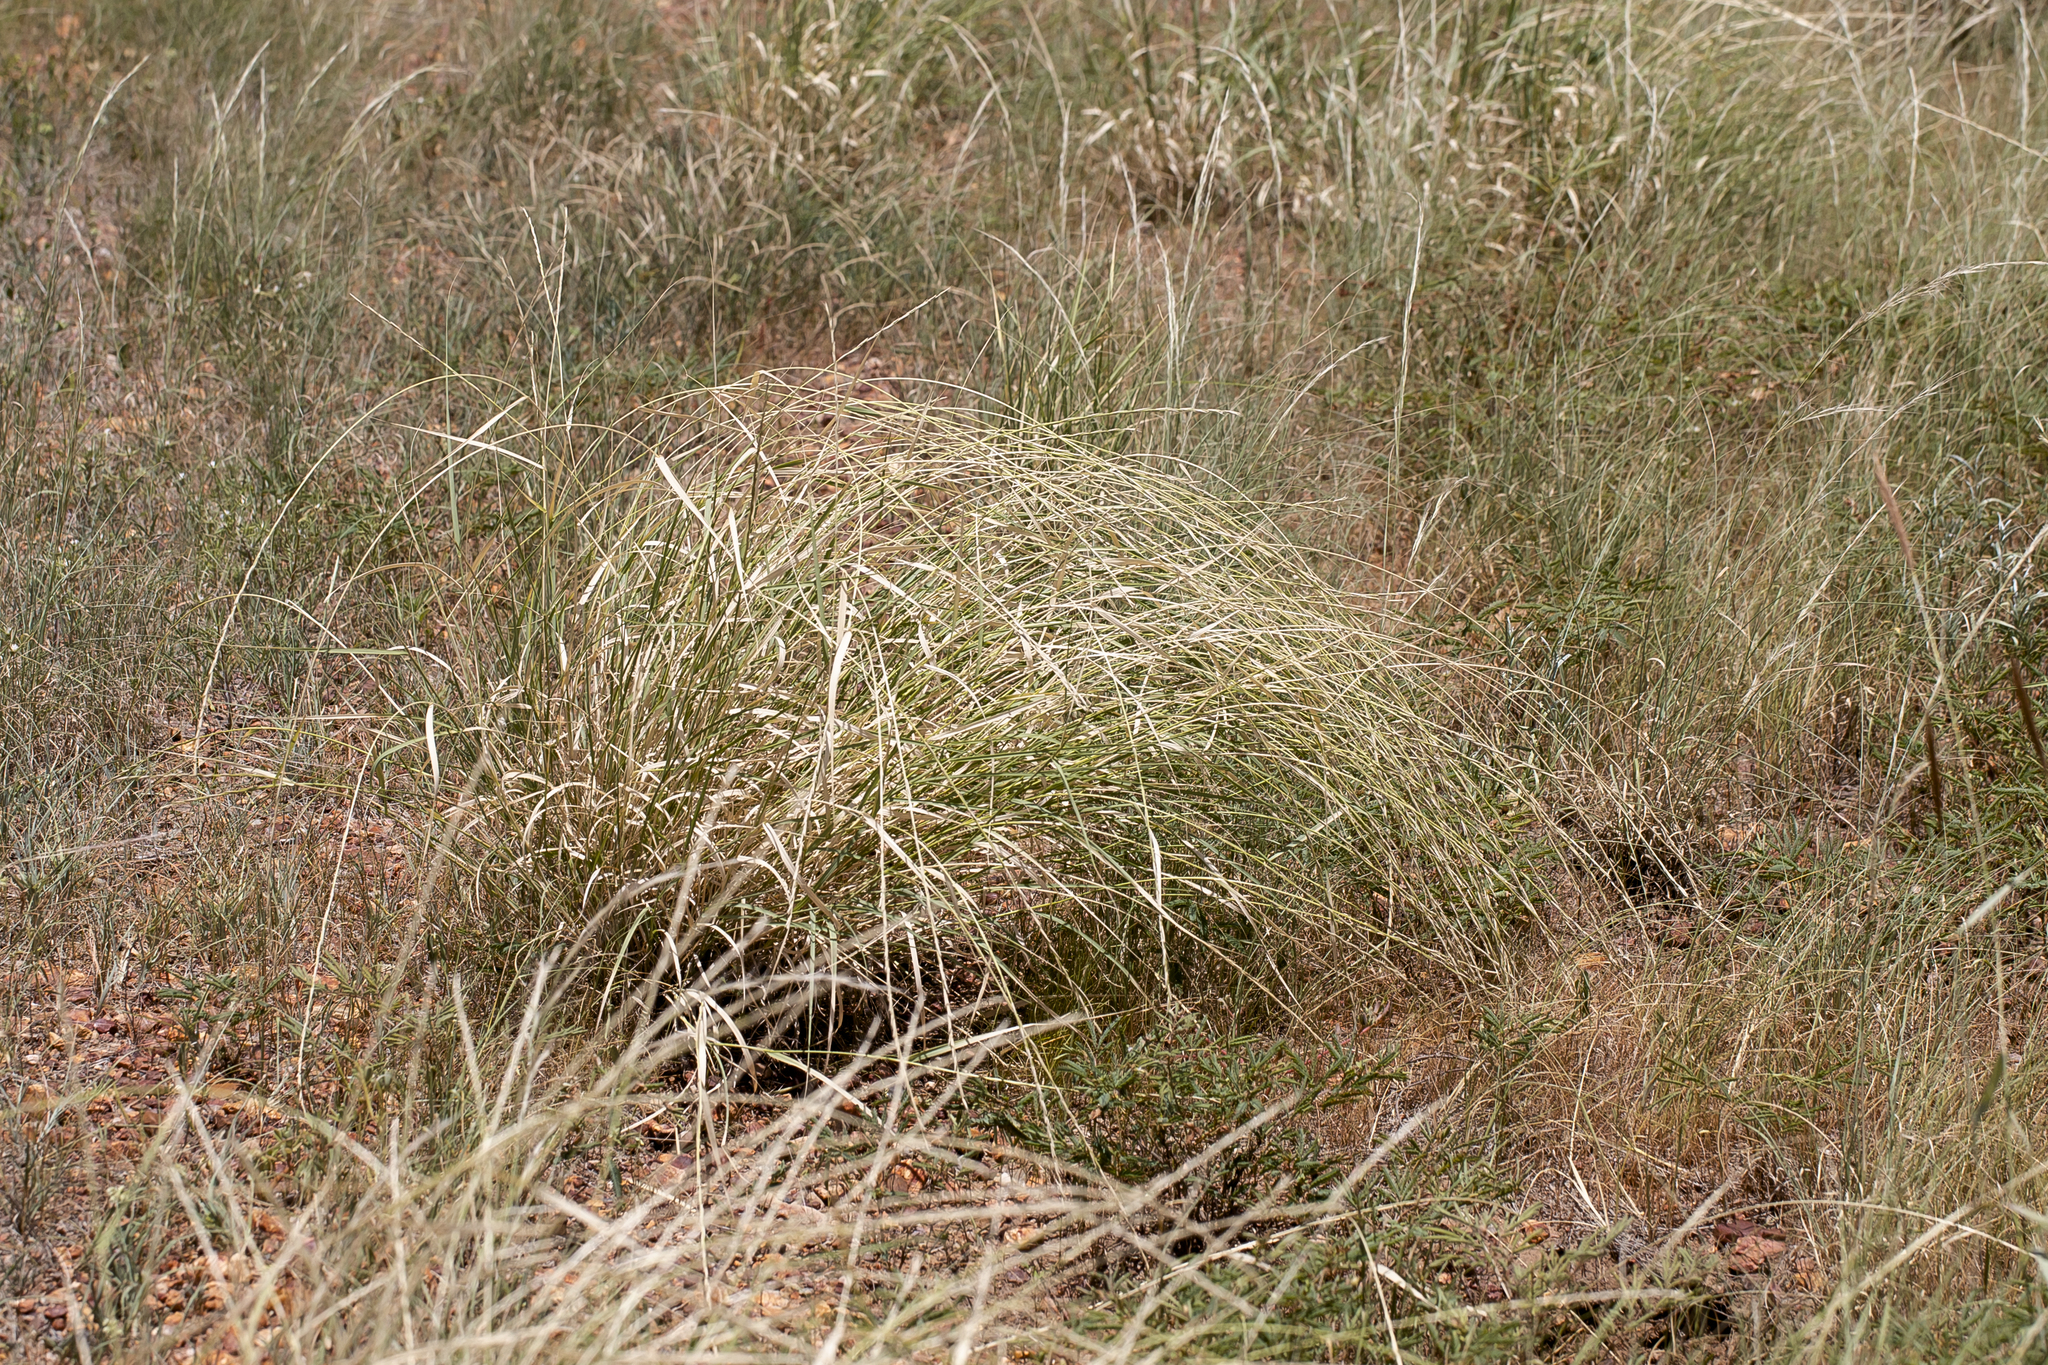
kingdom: Plantae
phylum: Tracheophyta
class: Liliopsida
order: Poales
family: Poaceae
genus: Astrebla
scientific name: Astrebla elymoides
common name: Hoop mitchell grass
